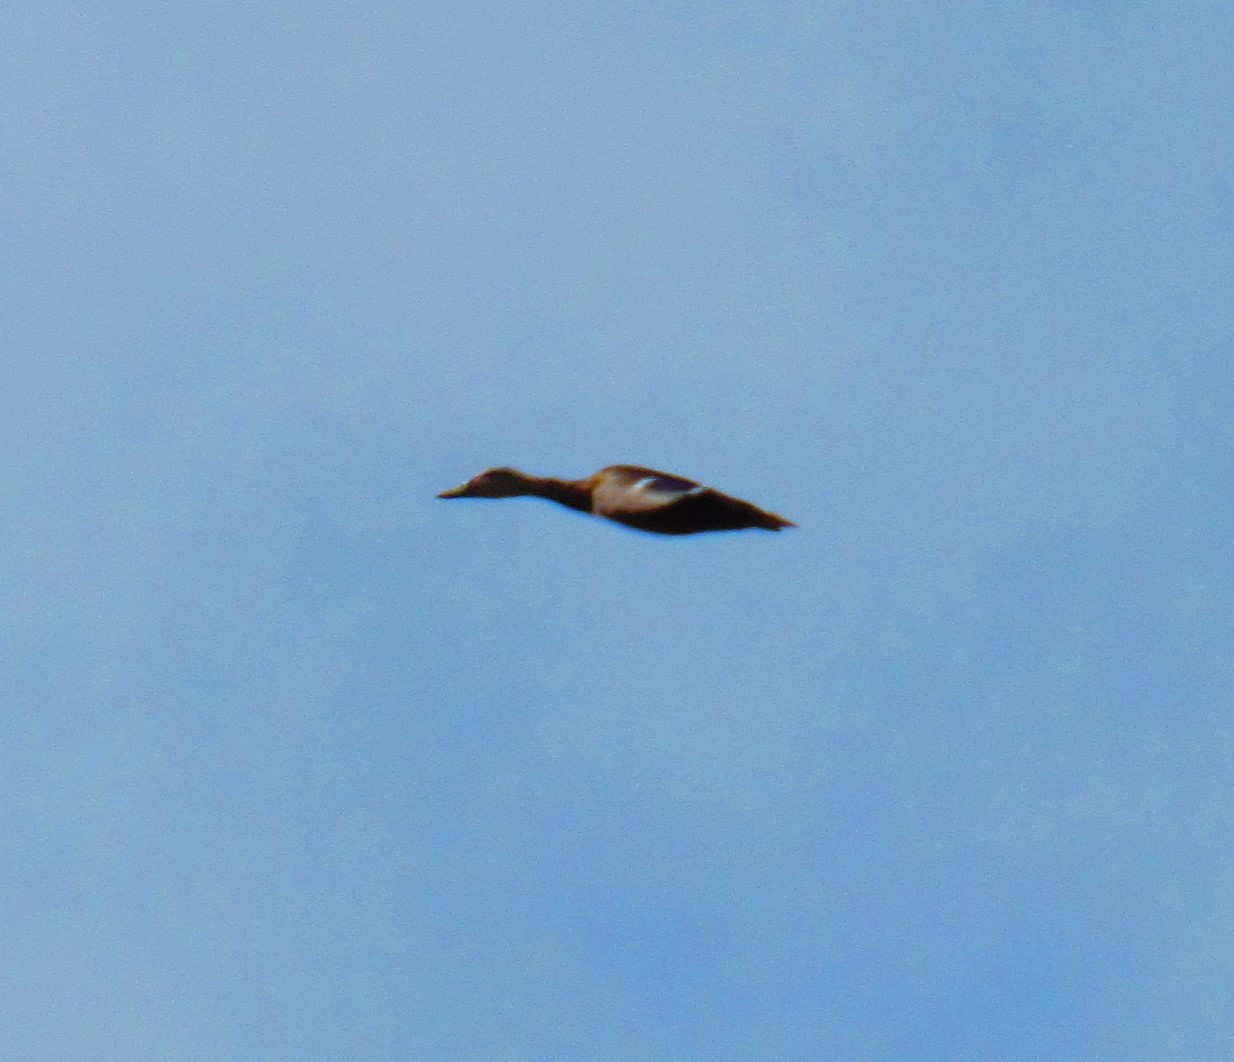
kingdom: Animalia
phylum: Chordata
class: Aves
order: Anseriformes
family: Anatidae
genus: Anas
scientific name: Anas diazi
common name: Mexican duck
